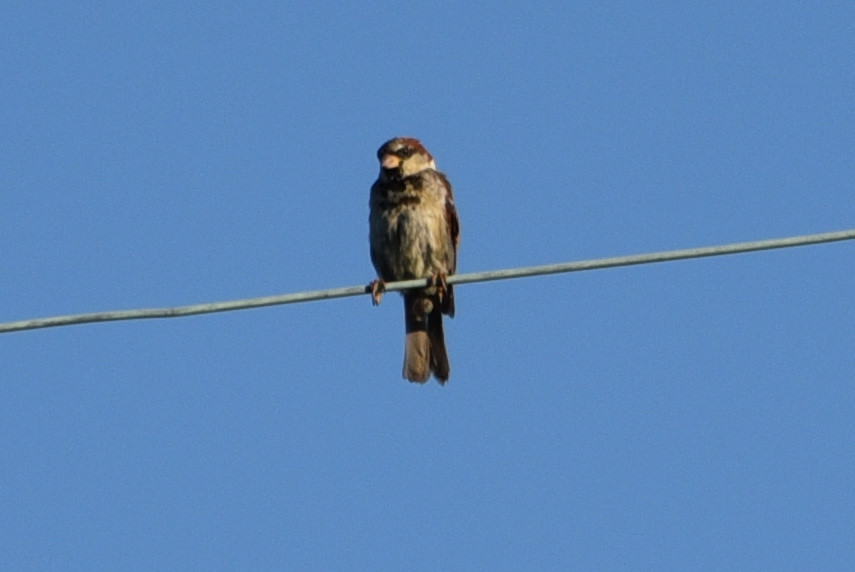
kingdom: Animalia
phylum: Chordata
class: Aves
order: Passeriformes
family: Passeridae
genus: Passer
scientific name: Passer domesticus
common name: House sparrow
